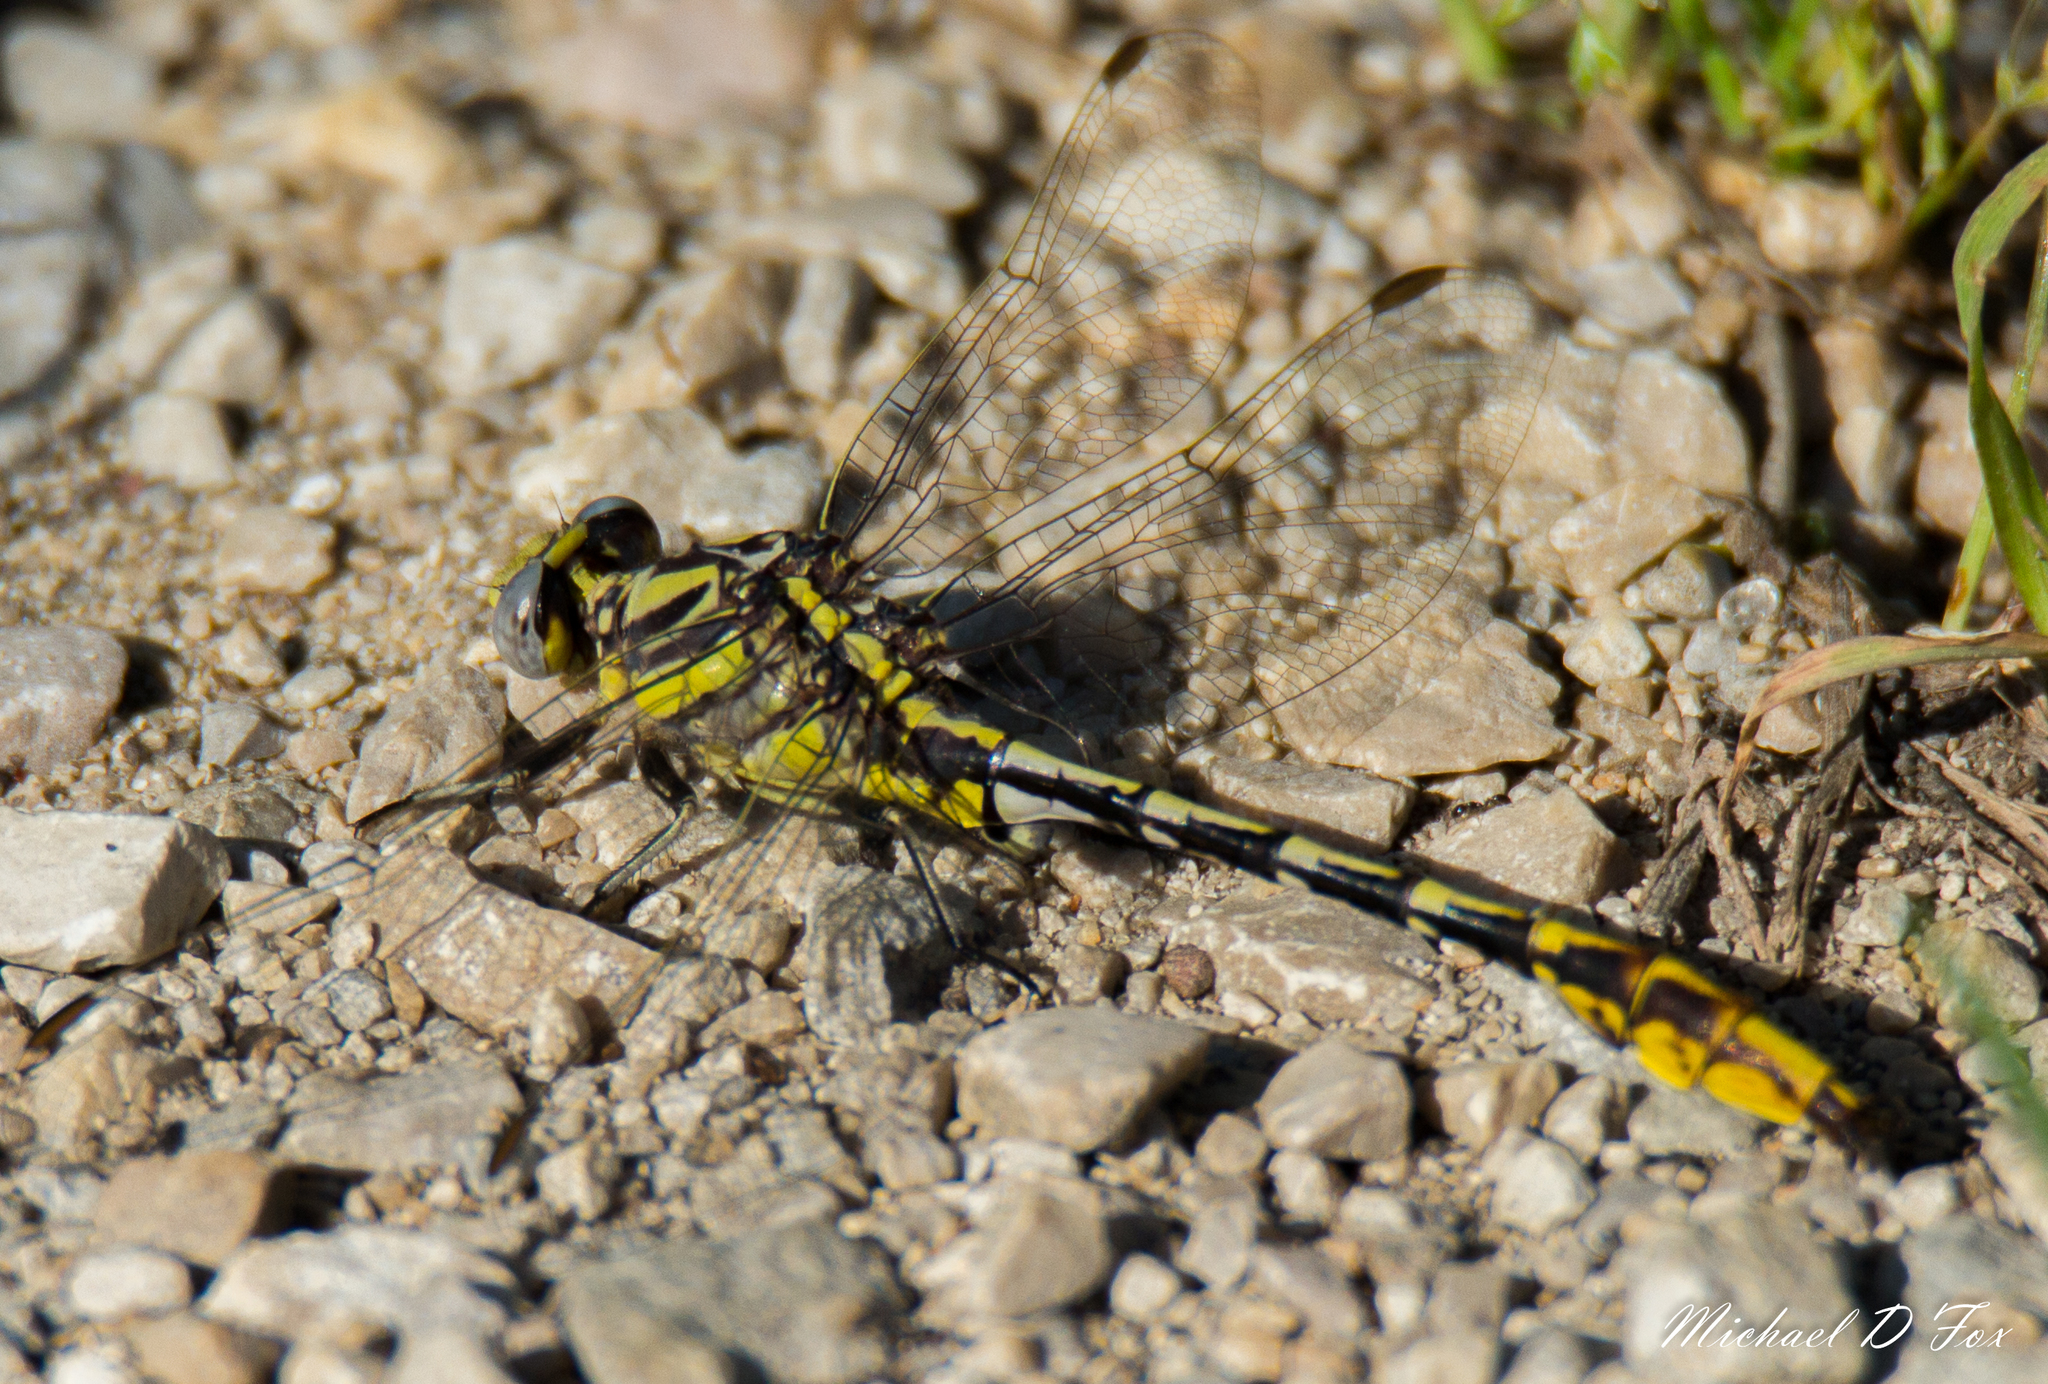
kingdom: Animalia
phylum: Arthropoda
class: Insecta
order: Odonata
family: Gomphidae
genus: Phanogomphus
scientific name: Phanogomphus militaris
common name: Sulphur-tipped clubtail
